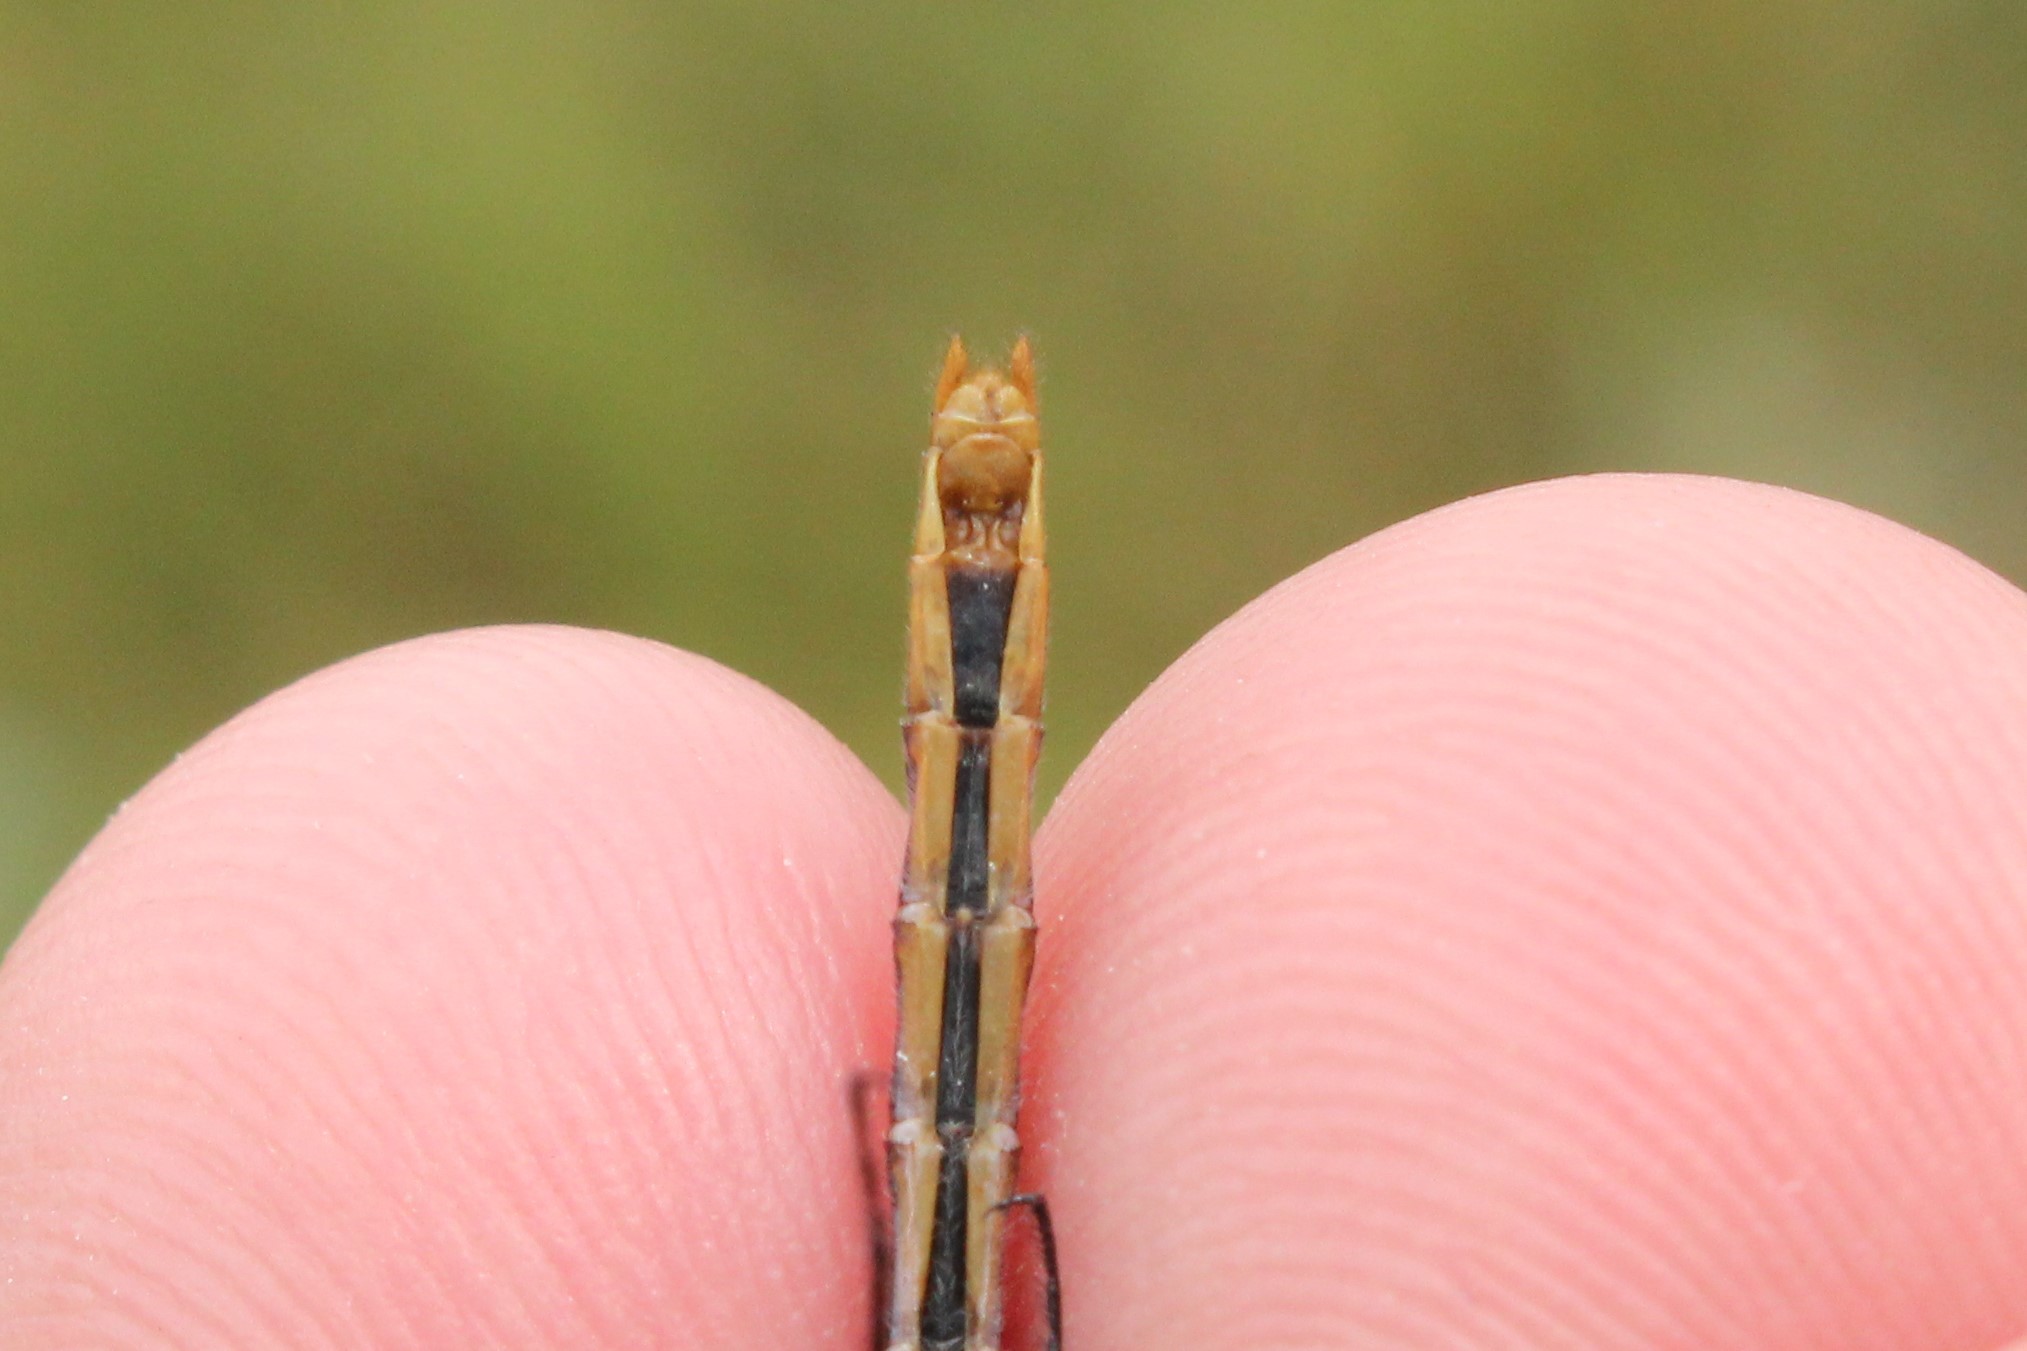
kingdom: Animalia
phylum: Arthropoda
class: Insecta
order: Odonata
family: Libellulidae
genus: Sympetrum
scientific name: Sympetrum internum
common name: Cherry-faced meadowhawk
